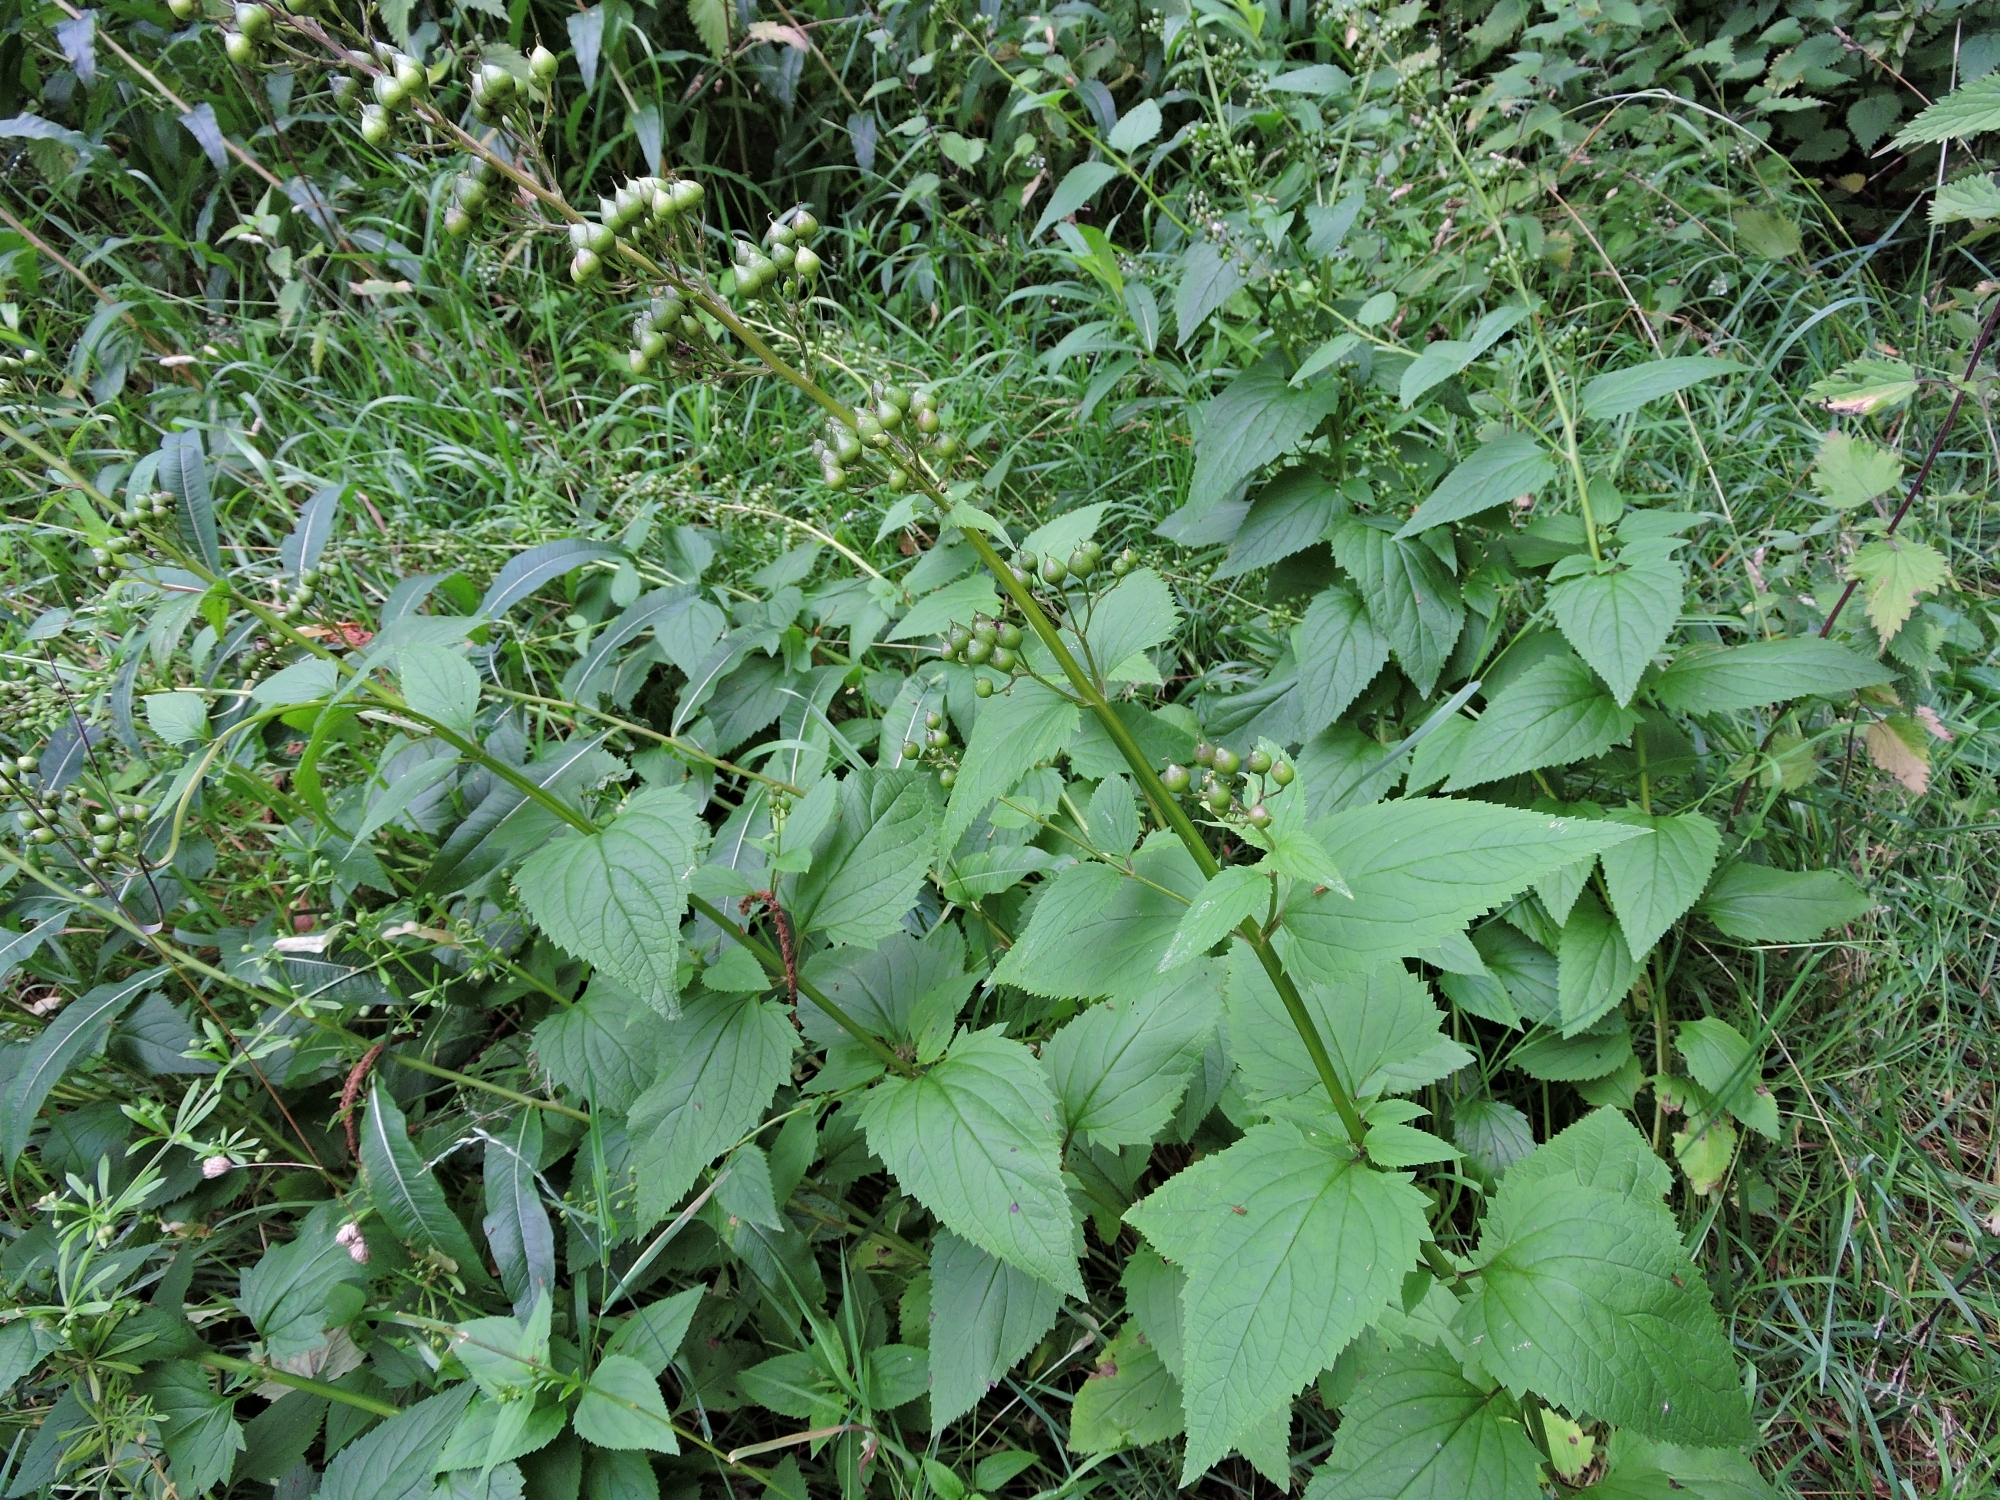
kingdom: Plantae
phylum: Tracheophyta
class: Magnoliopsida
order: Lamiales
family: Scrophulariaceae
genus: Scrophularia
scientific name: Scrophularia nodosa
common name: Common figwort
